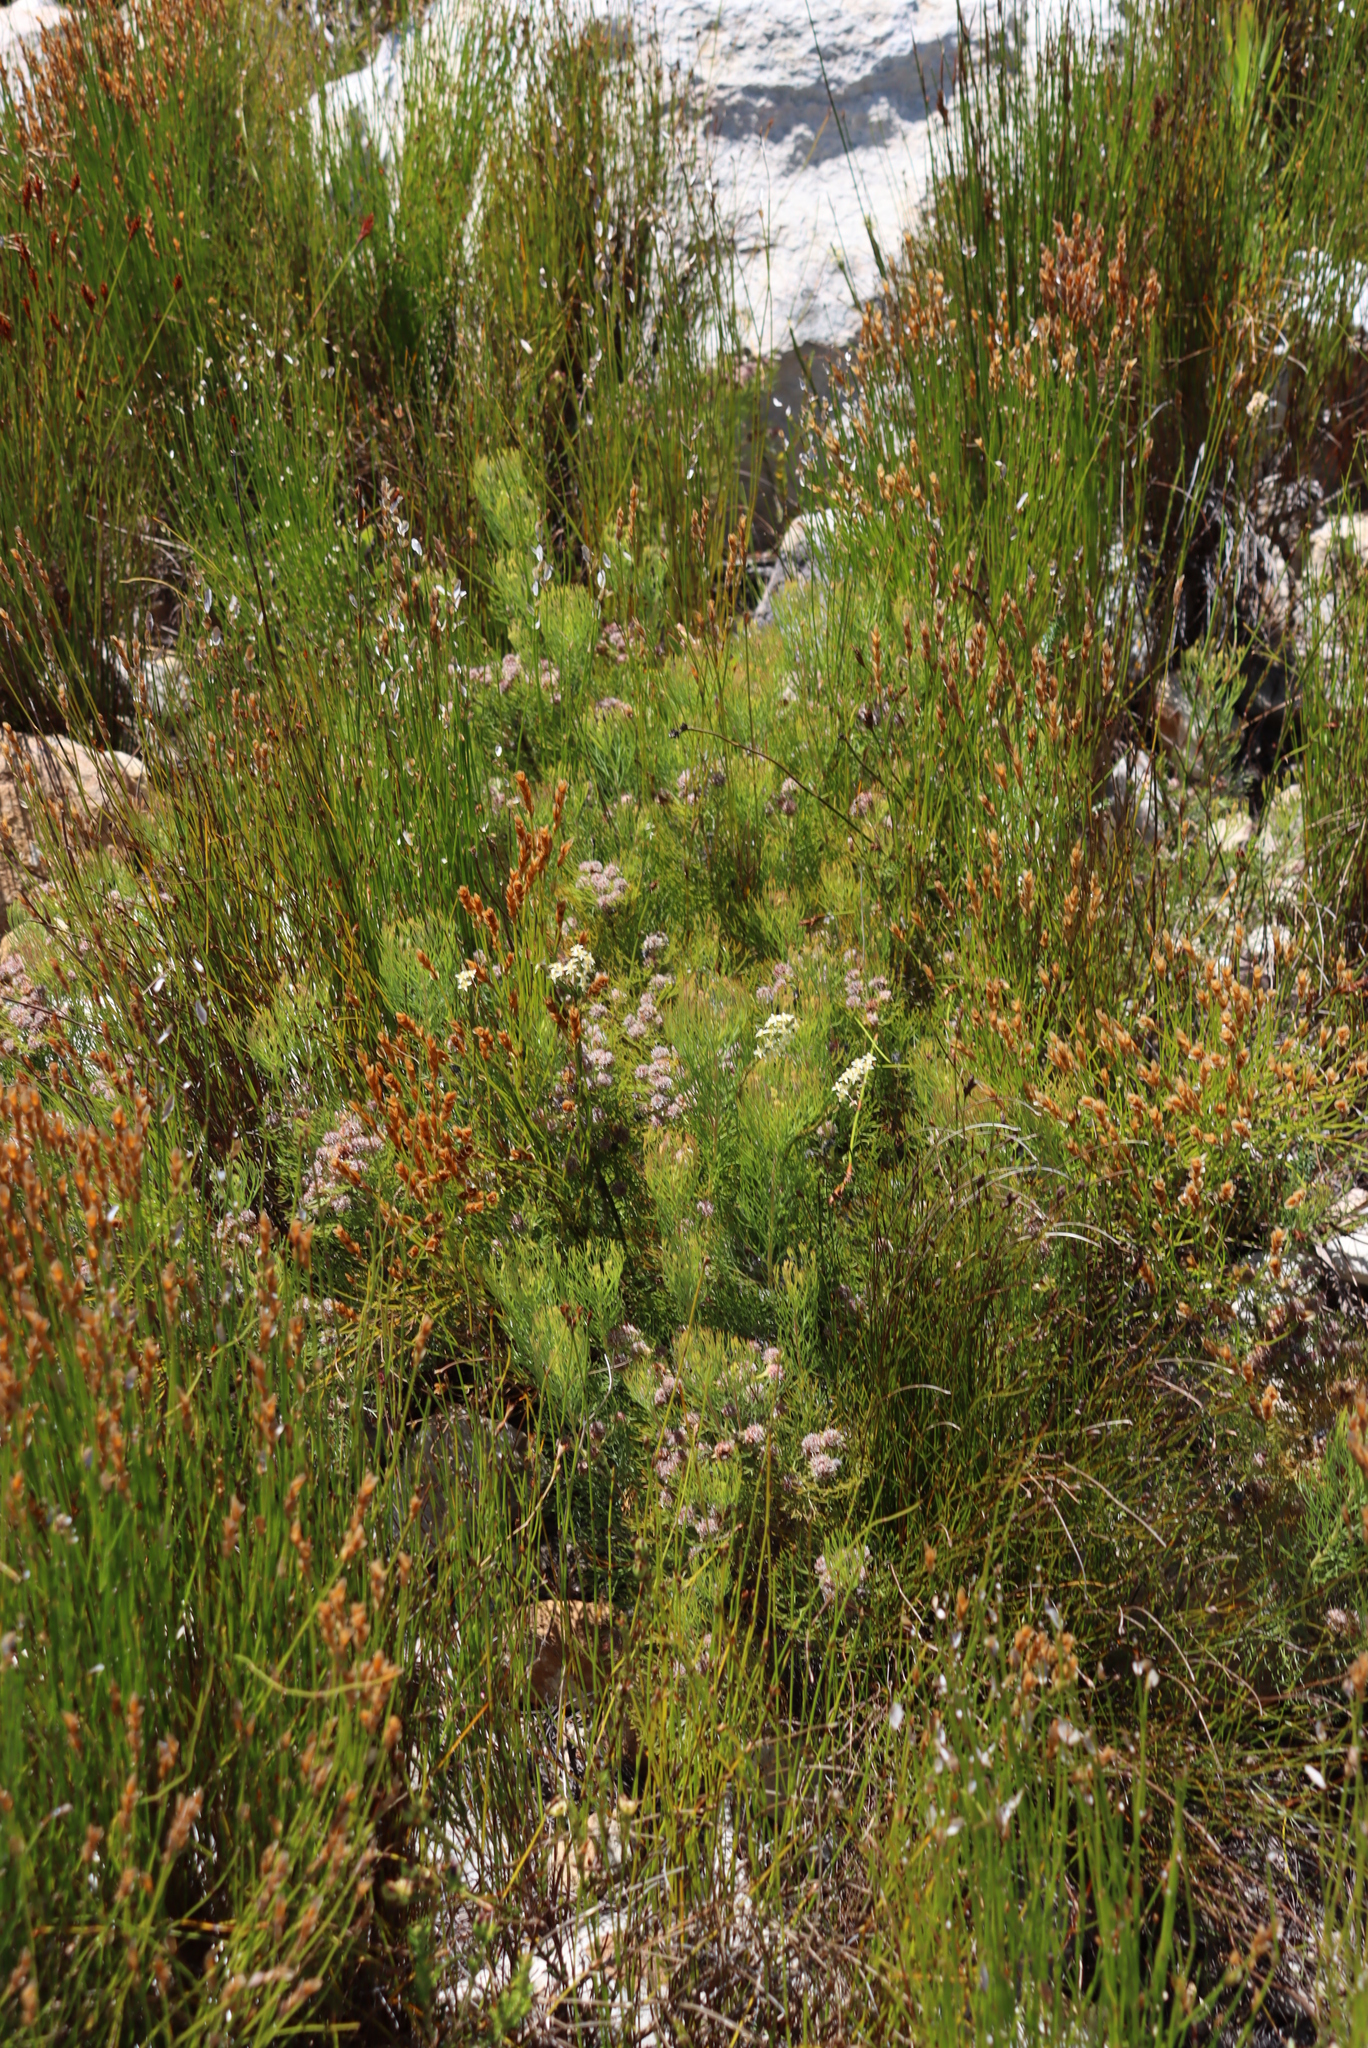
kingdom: Plantae
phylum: Tracheophyta
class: Magnoliopsida
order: Proteales
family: Proteaceae
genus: Serruria
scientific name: Serruria fasciflora
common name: Common pin spiderhead
